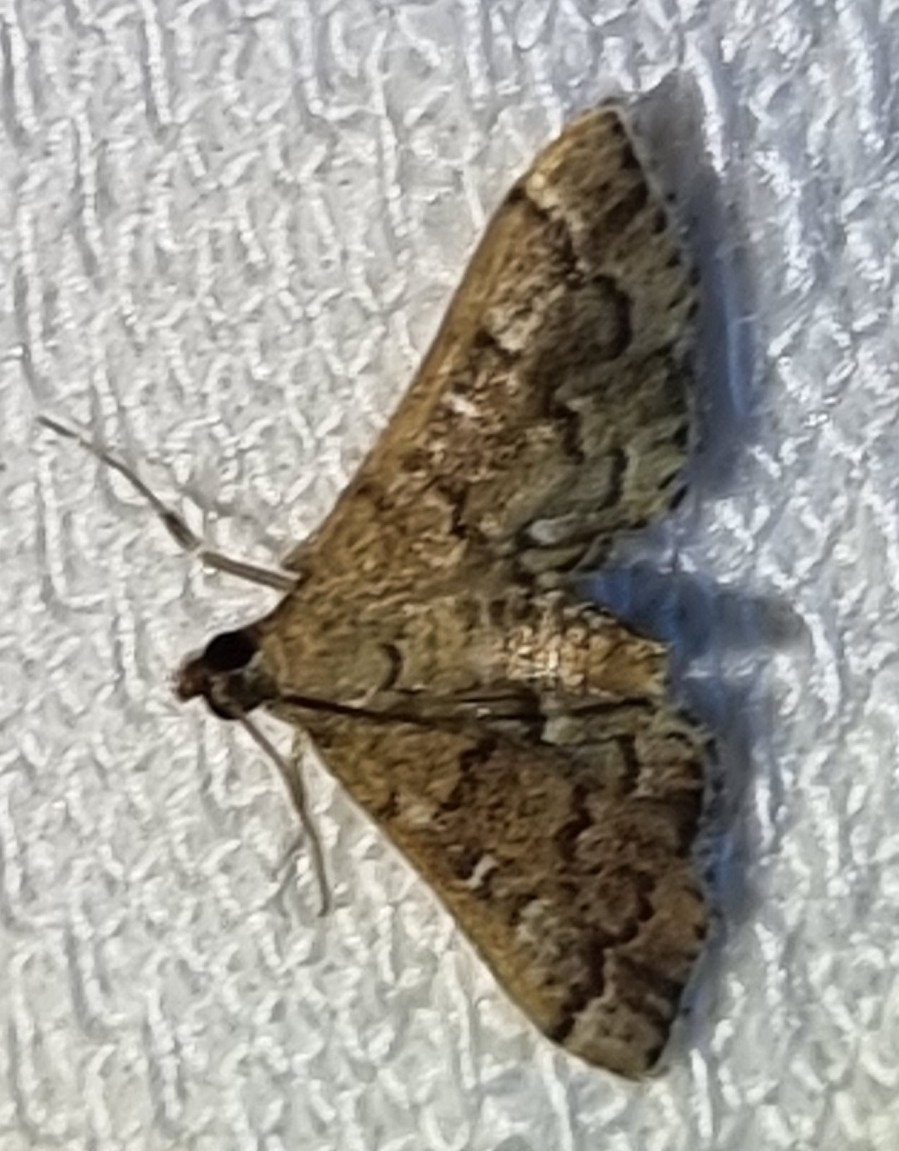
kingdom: Animalia
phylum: Arthropoda
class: Insecta
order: Lepidoptera
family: Crambidae
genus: Nacoleia
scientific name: Nacoleia rhoeoalis
